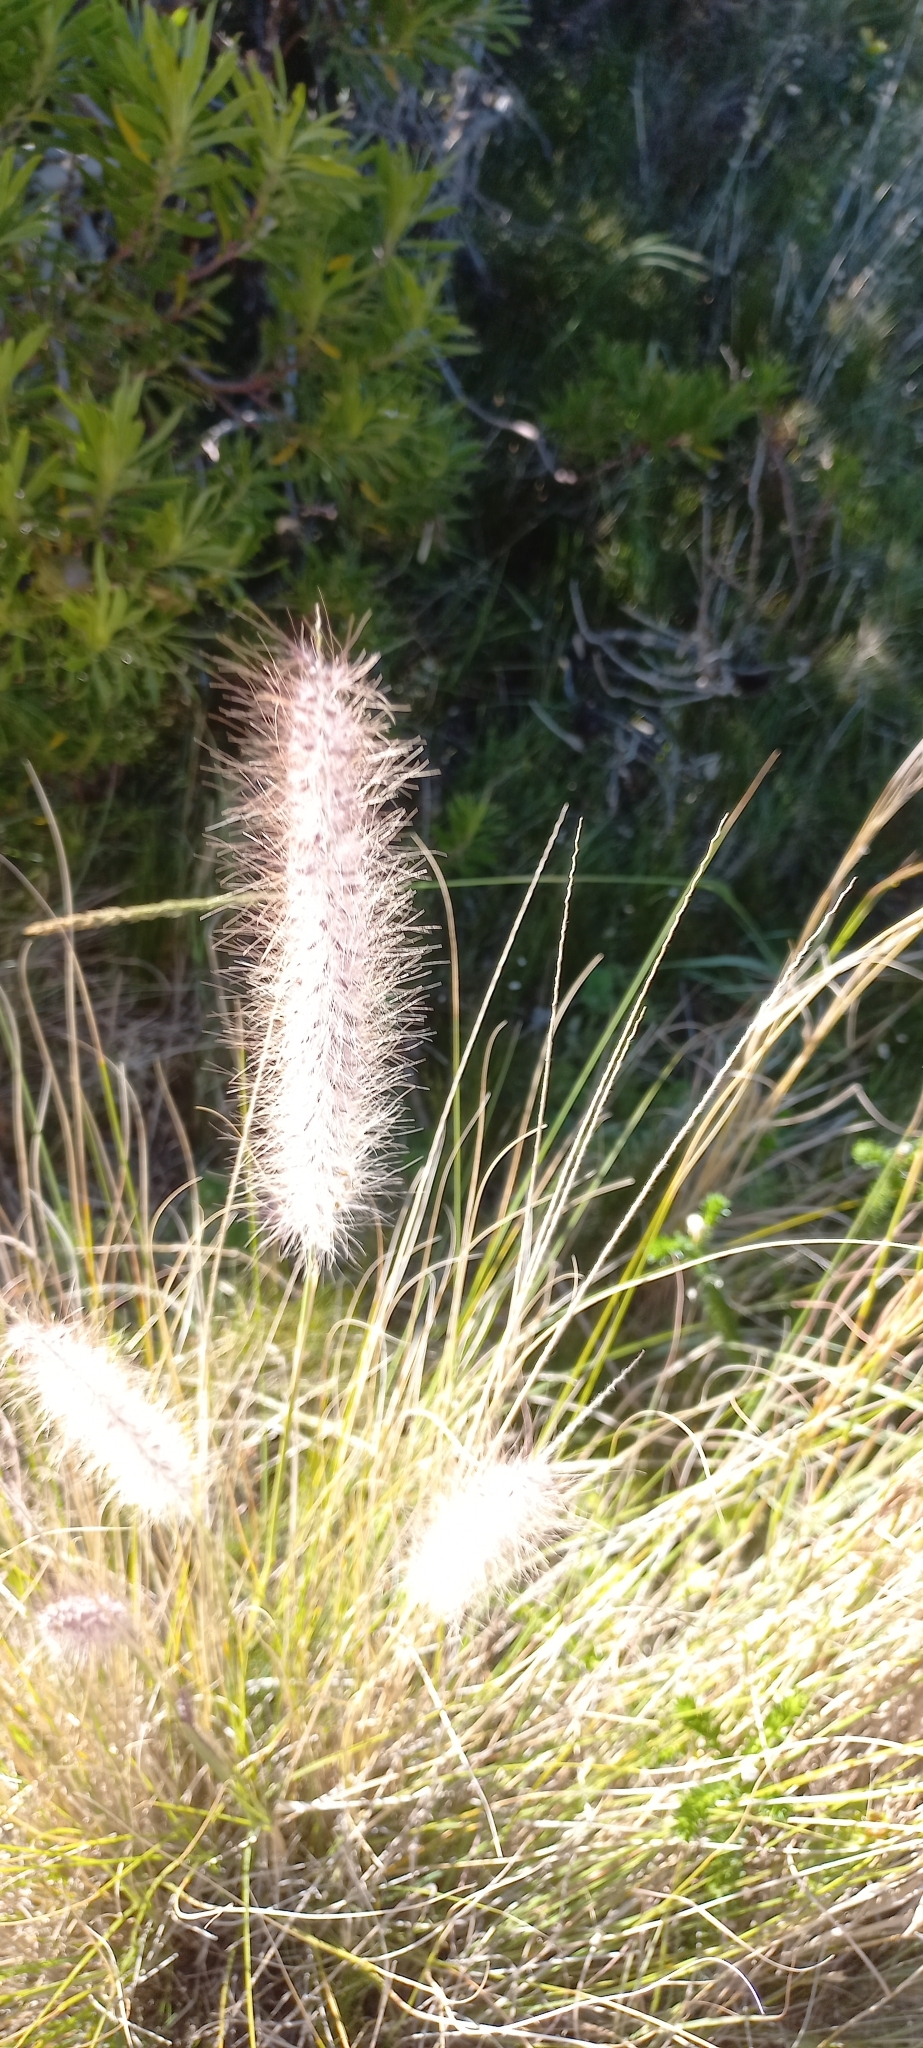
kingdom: Plantae
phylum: Tracheophyta
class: Liliopsida
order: Poales
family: Poaceae
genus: Cenchrus
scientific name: Cenchrus setaceus
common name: Crimson fountaingrass
